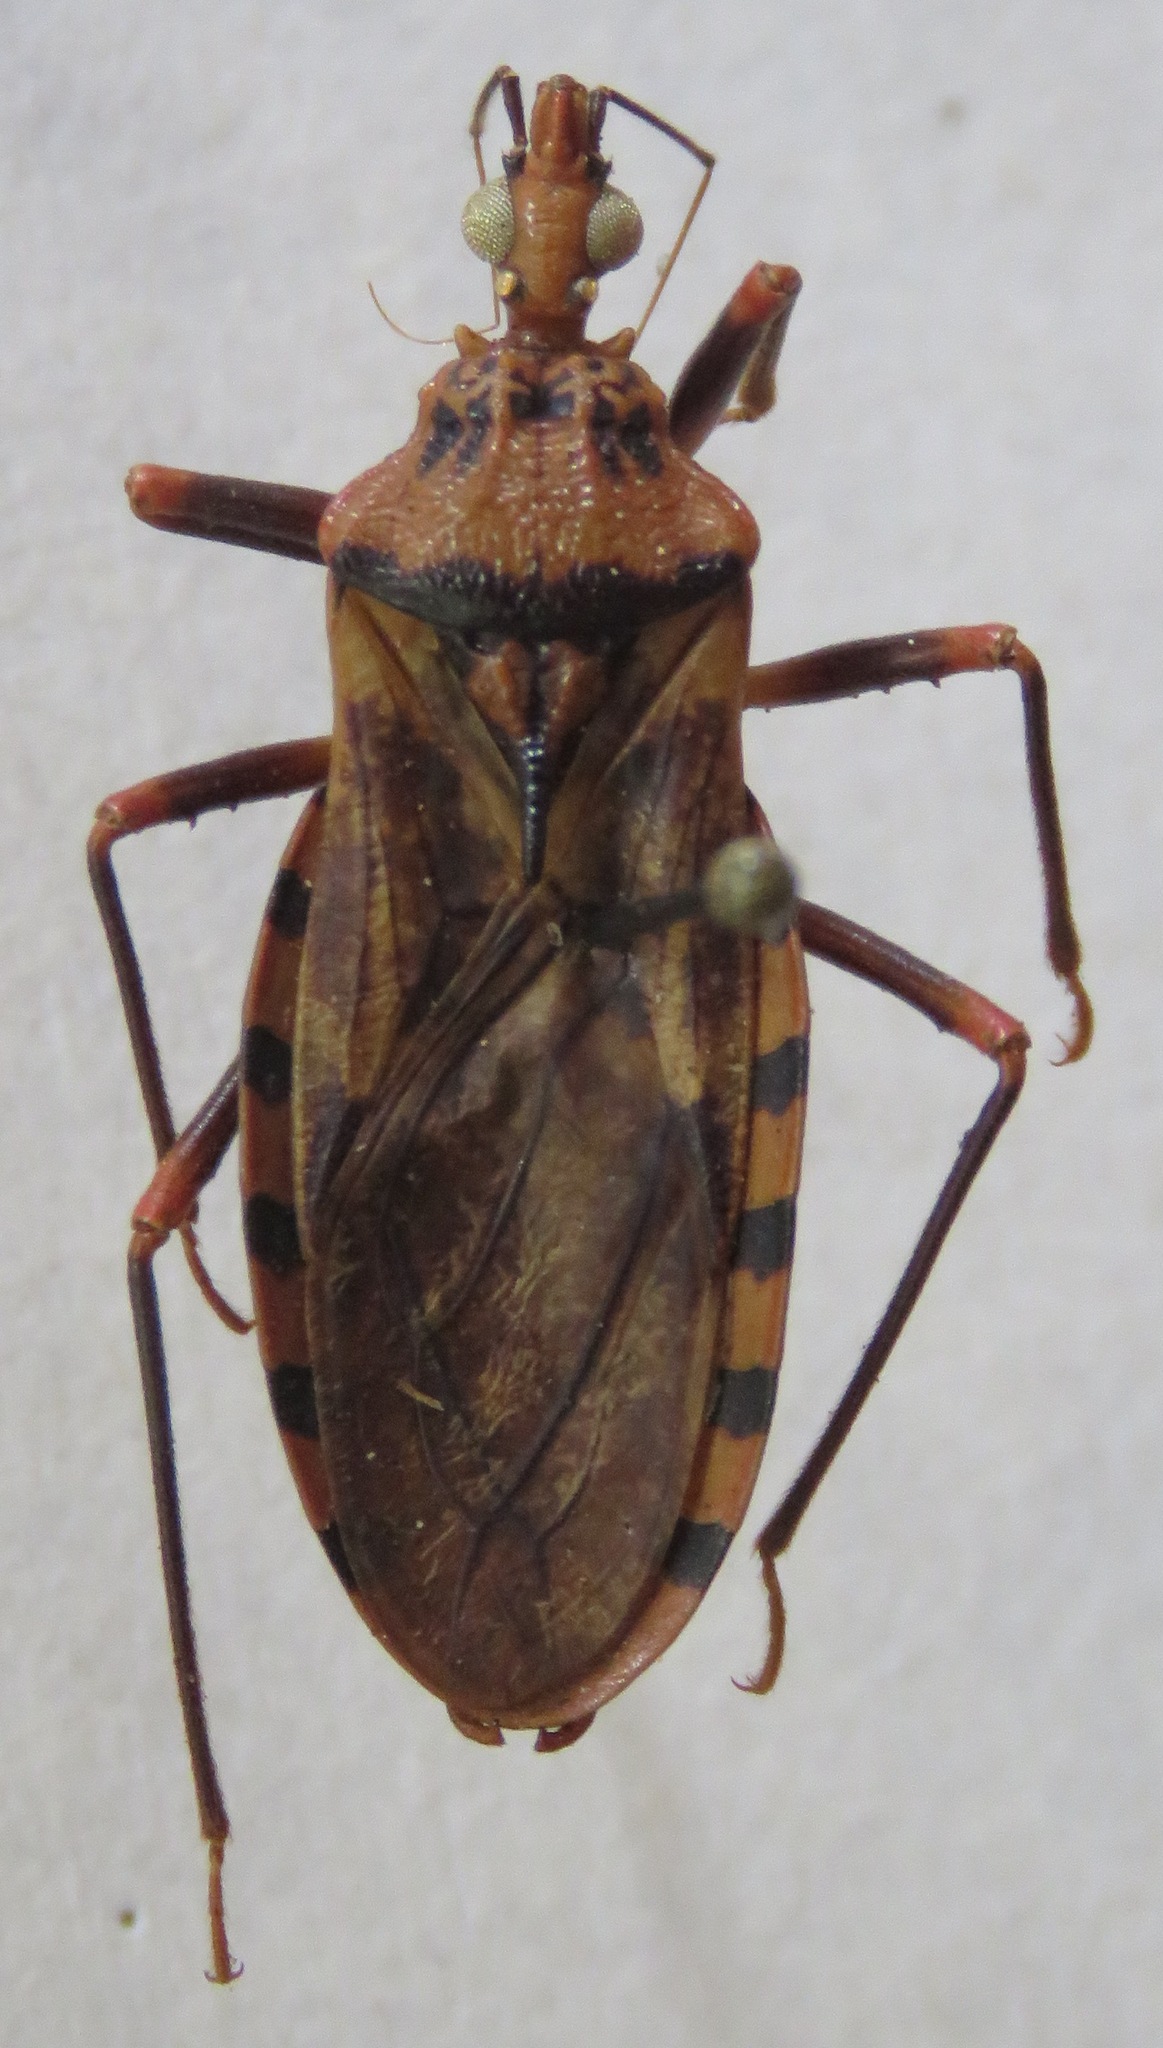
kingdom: Animalia
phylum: Arthropoda
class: Insecta
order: Hemiptera
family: Reduviidae
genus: Panstrongylus
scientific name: Panstrongylus geniculatus
